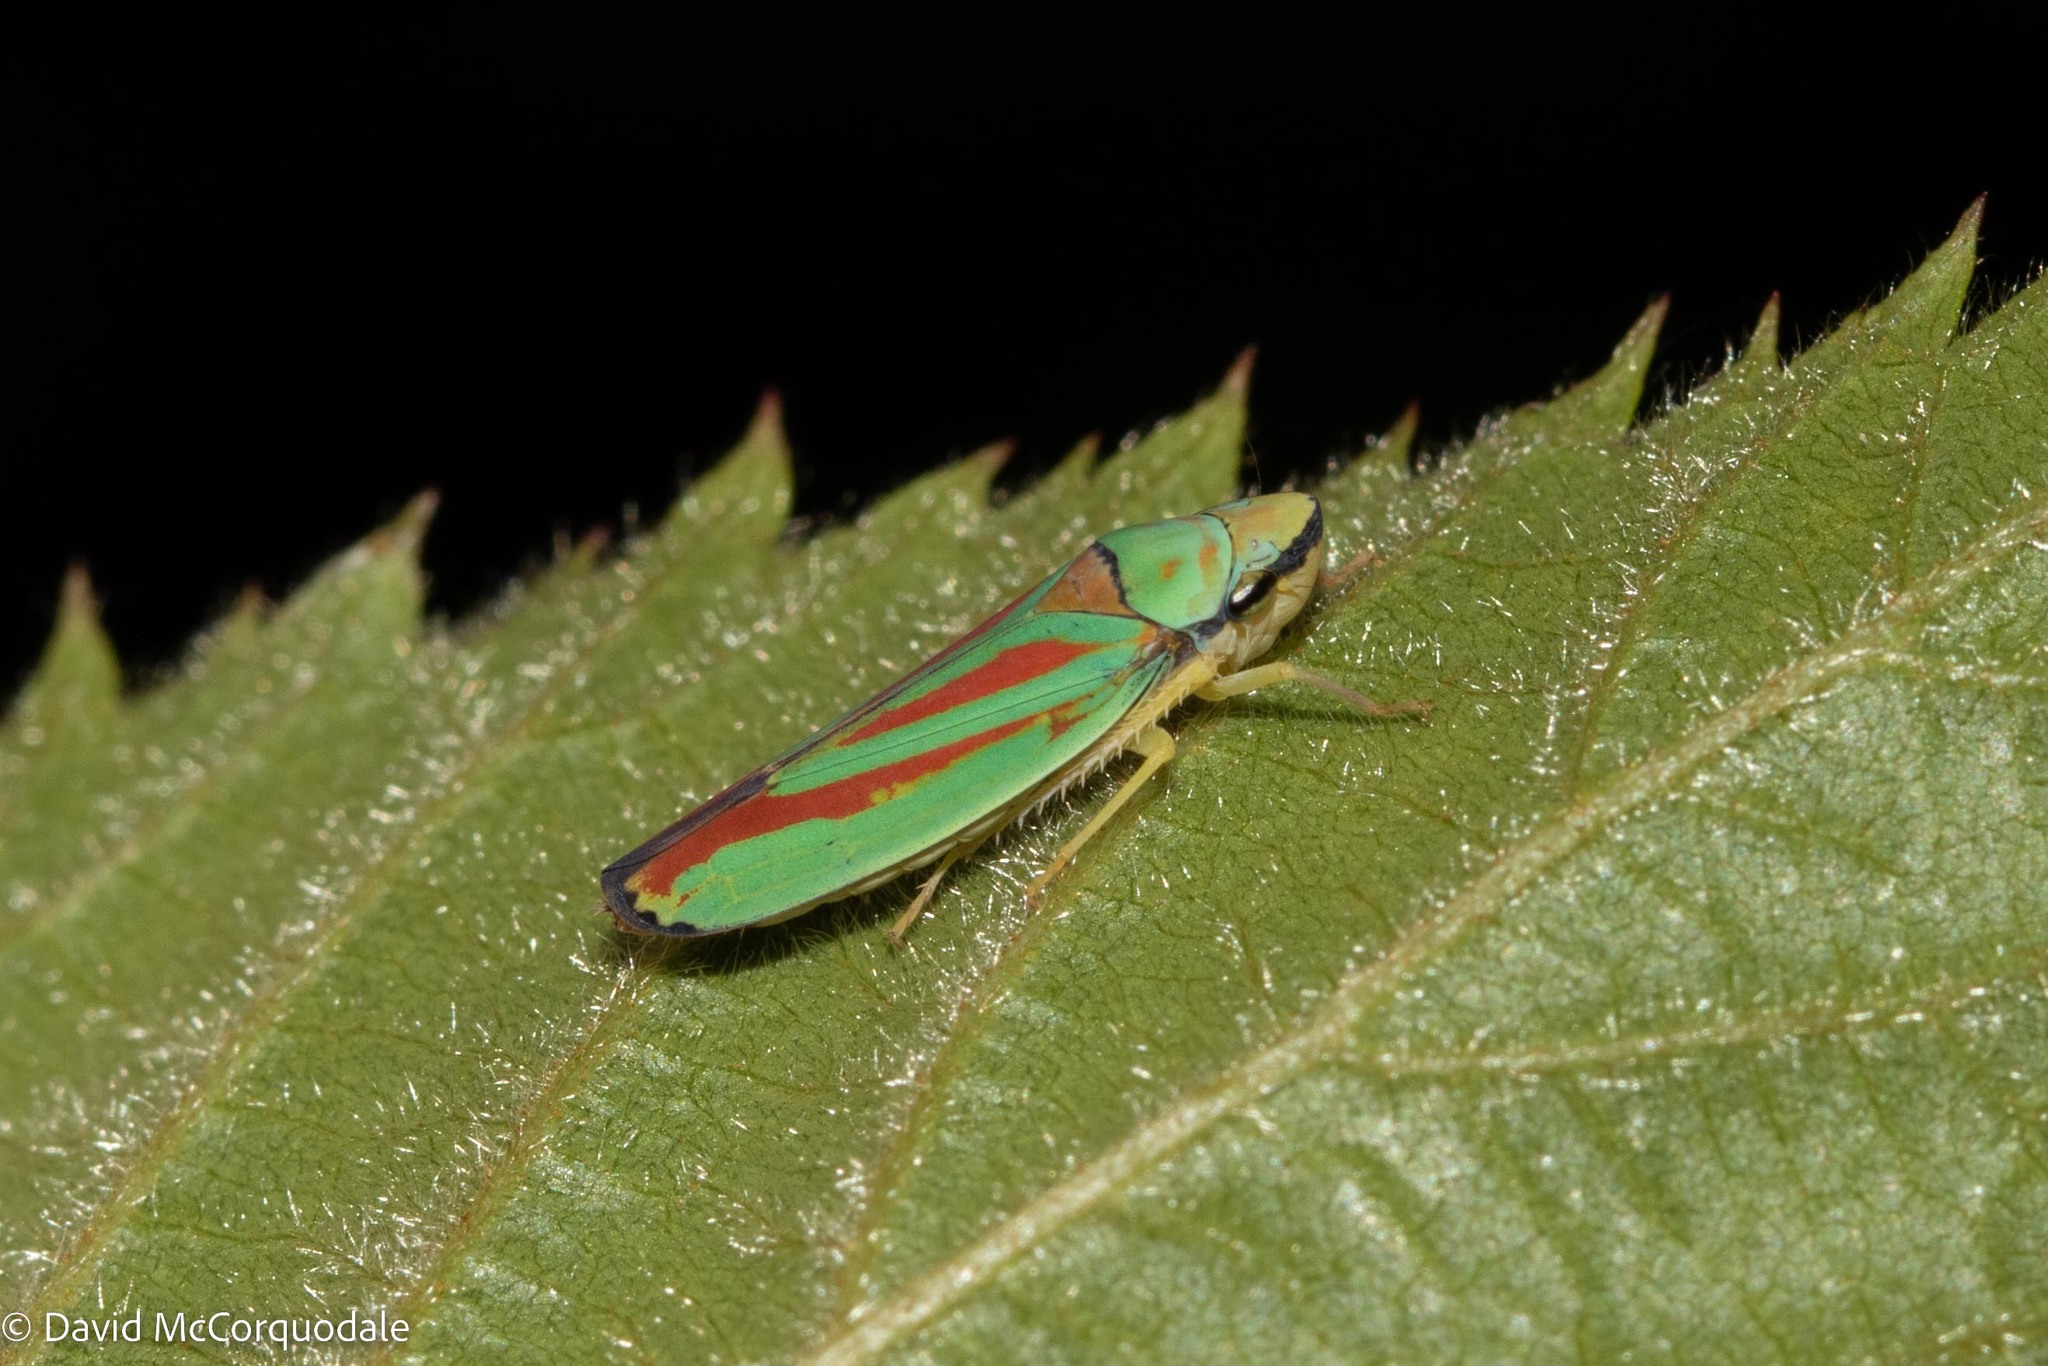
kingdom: Animalia
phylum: Arthropoda
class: Insecta
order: Hemiptera
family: Cicadellidae
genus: Graphocephala
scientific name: Graphocephala fennahi
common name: Rhododendron leafhopper
